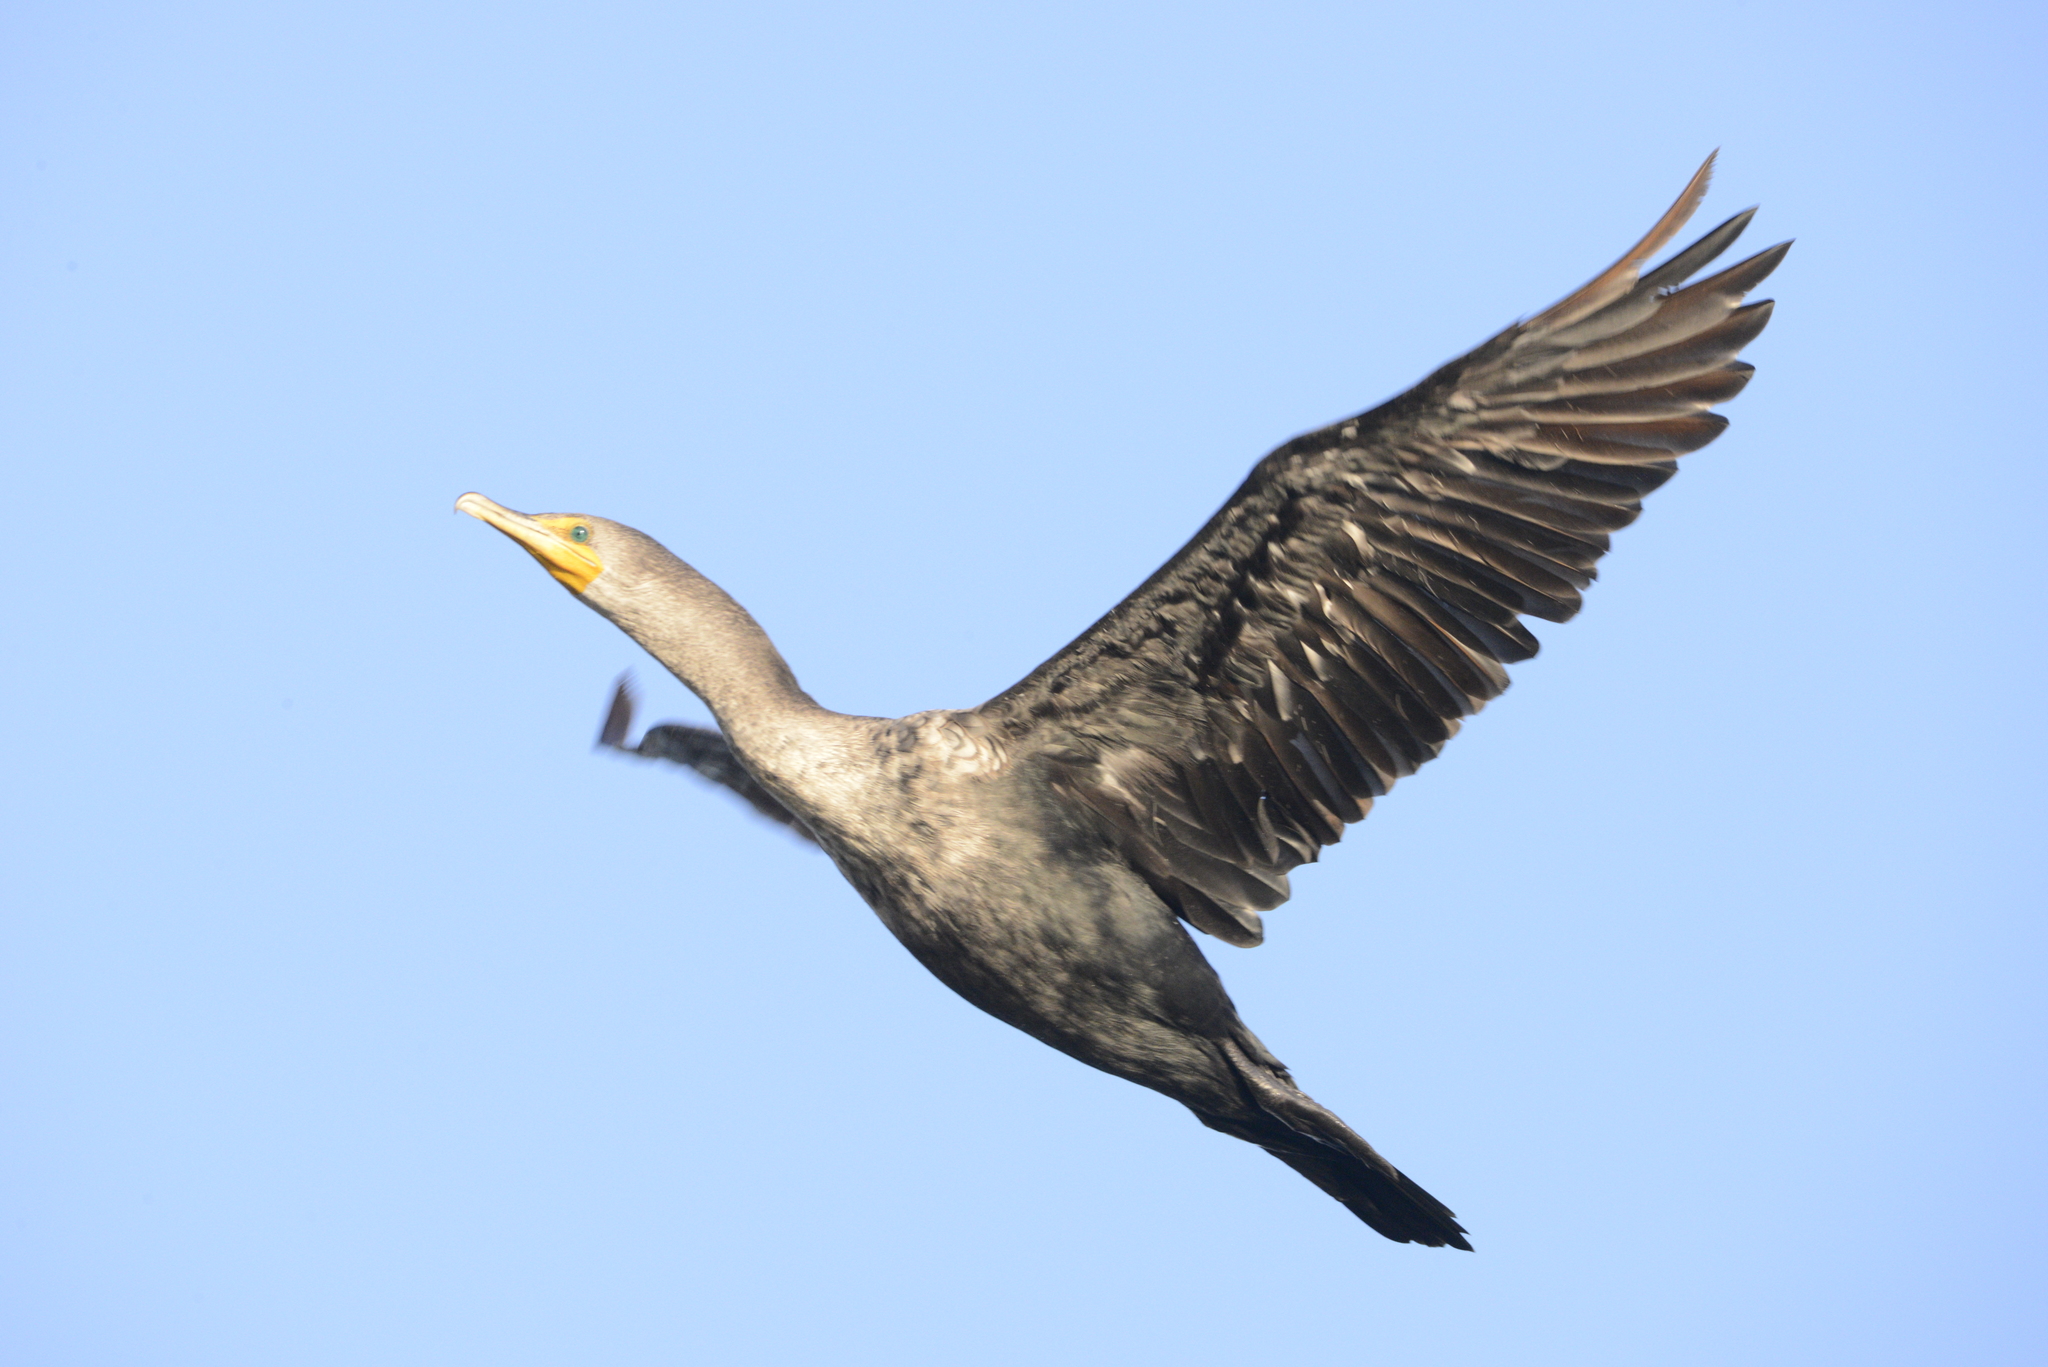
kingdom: Animalia
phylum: Chordata
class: Aves
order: Suliformes
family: Phalacrocoracidae
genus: Phalacrocorax
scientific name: Phalacrocorax auritus
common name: Double-crested cormorant
